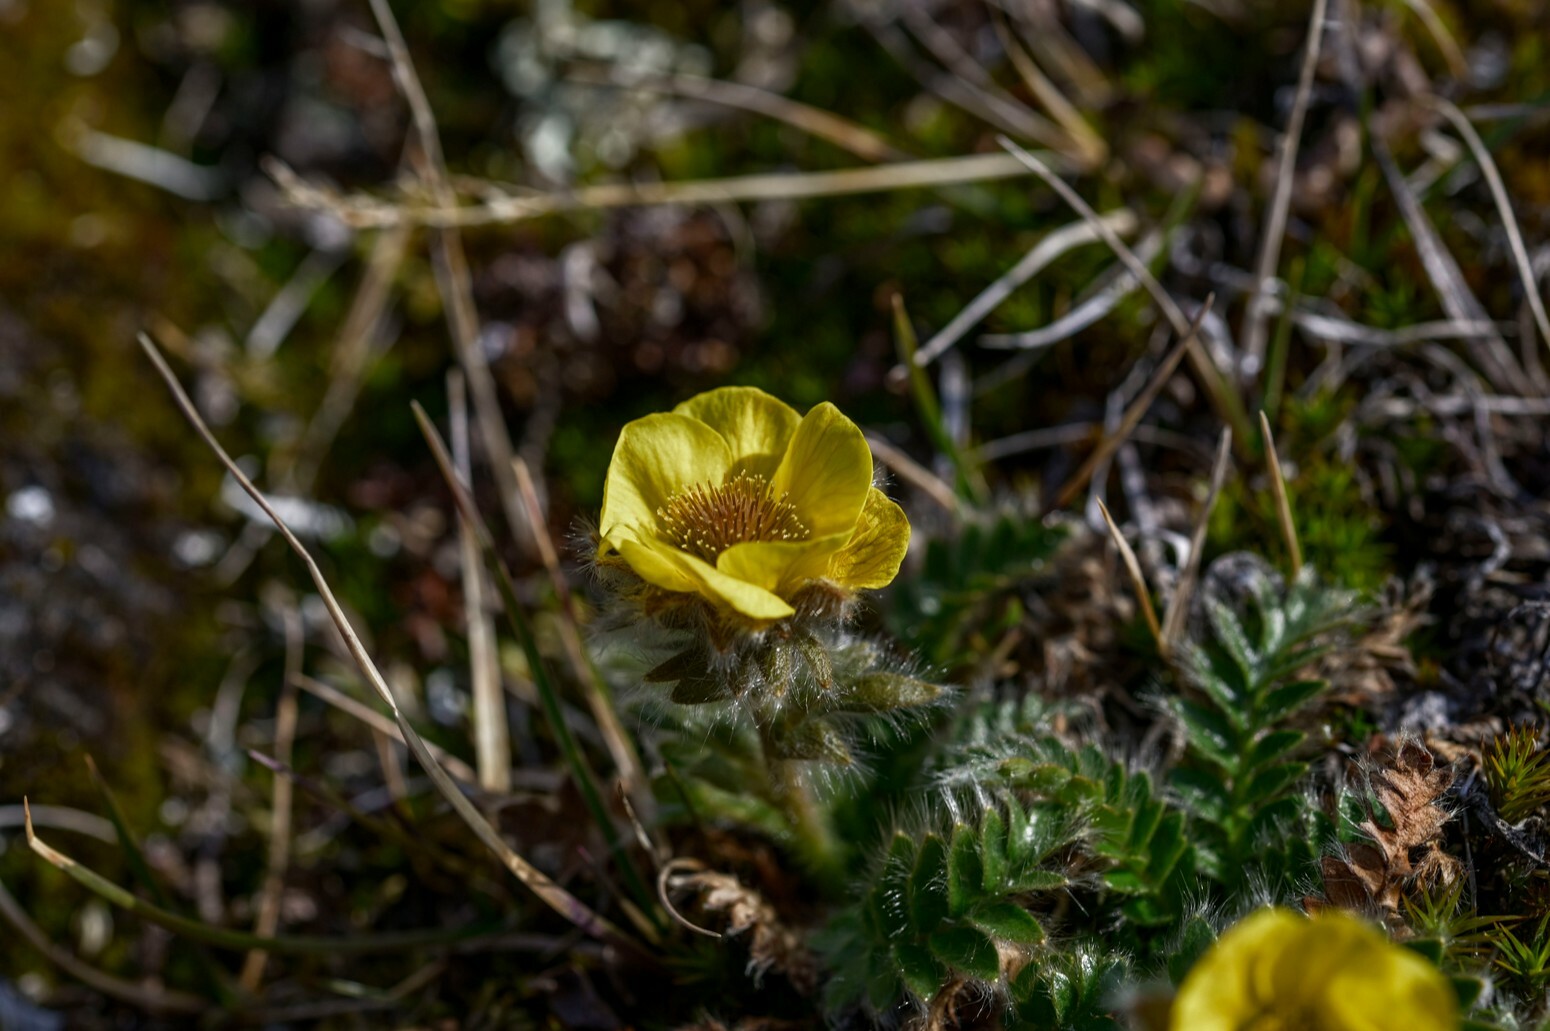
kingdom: Plantae
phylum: Tracheophyta
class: Magnoliopsida
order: Rosales
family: Rosaceae
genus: Geum
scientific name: Geum glaciale
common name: Glacier avens
